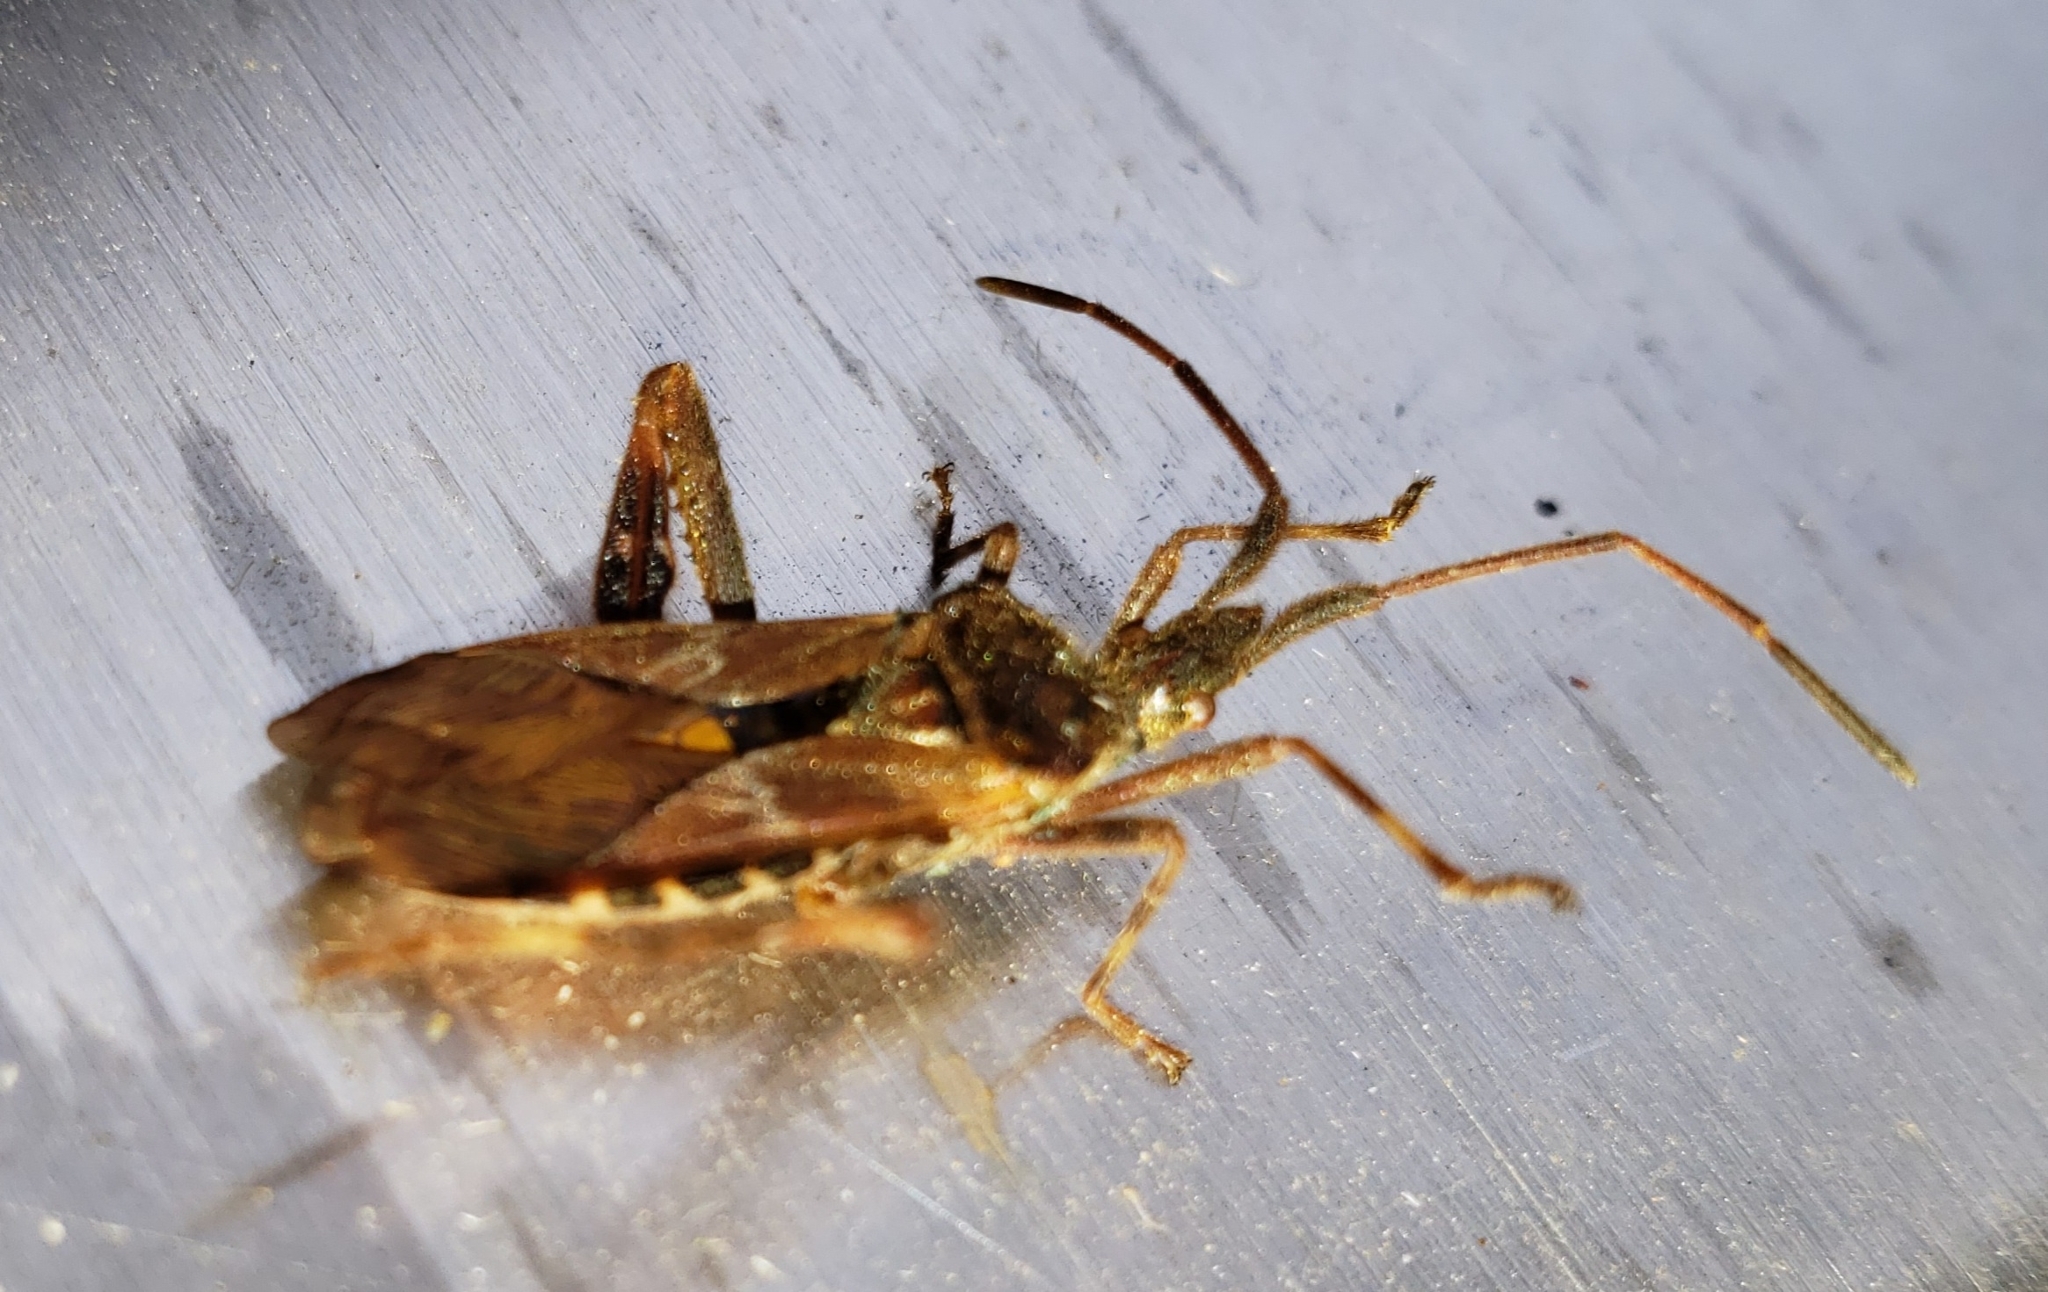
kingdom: Animalia
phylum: Arthropoda
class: Insecta
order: Hemiptera
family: Coreidae
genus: Leptoglossus
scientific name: Leptoglossus occidentalis
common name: Western conifer-seed bug
